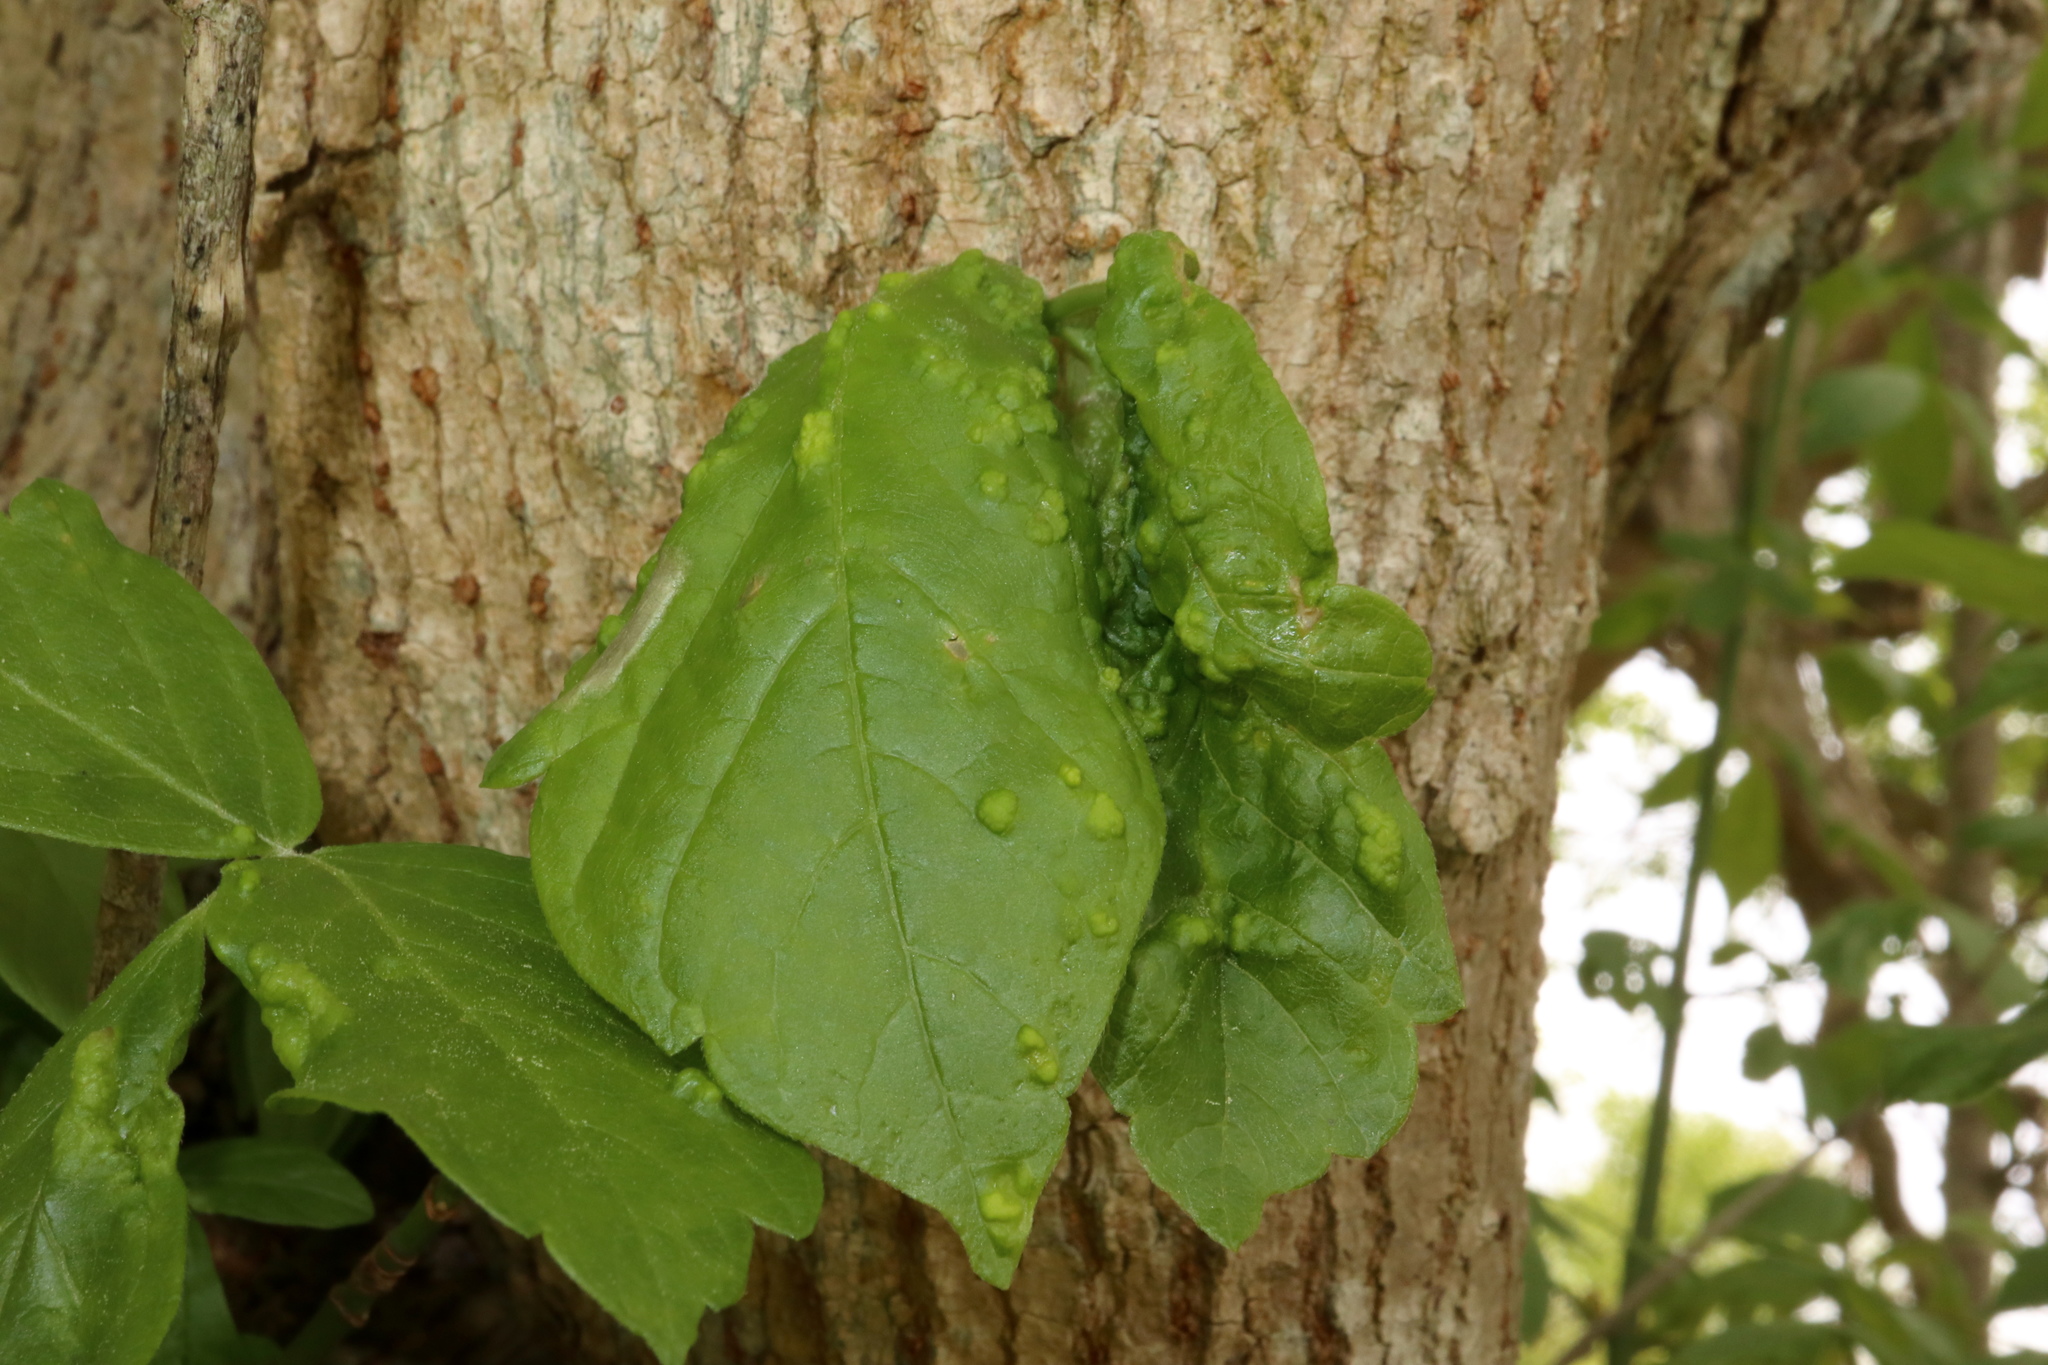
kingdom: Animalia
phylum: Arthropoda
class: Arachnida
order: Trombidiformes
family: Eriophyidae
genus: Aceria
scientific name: Aceria
